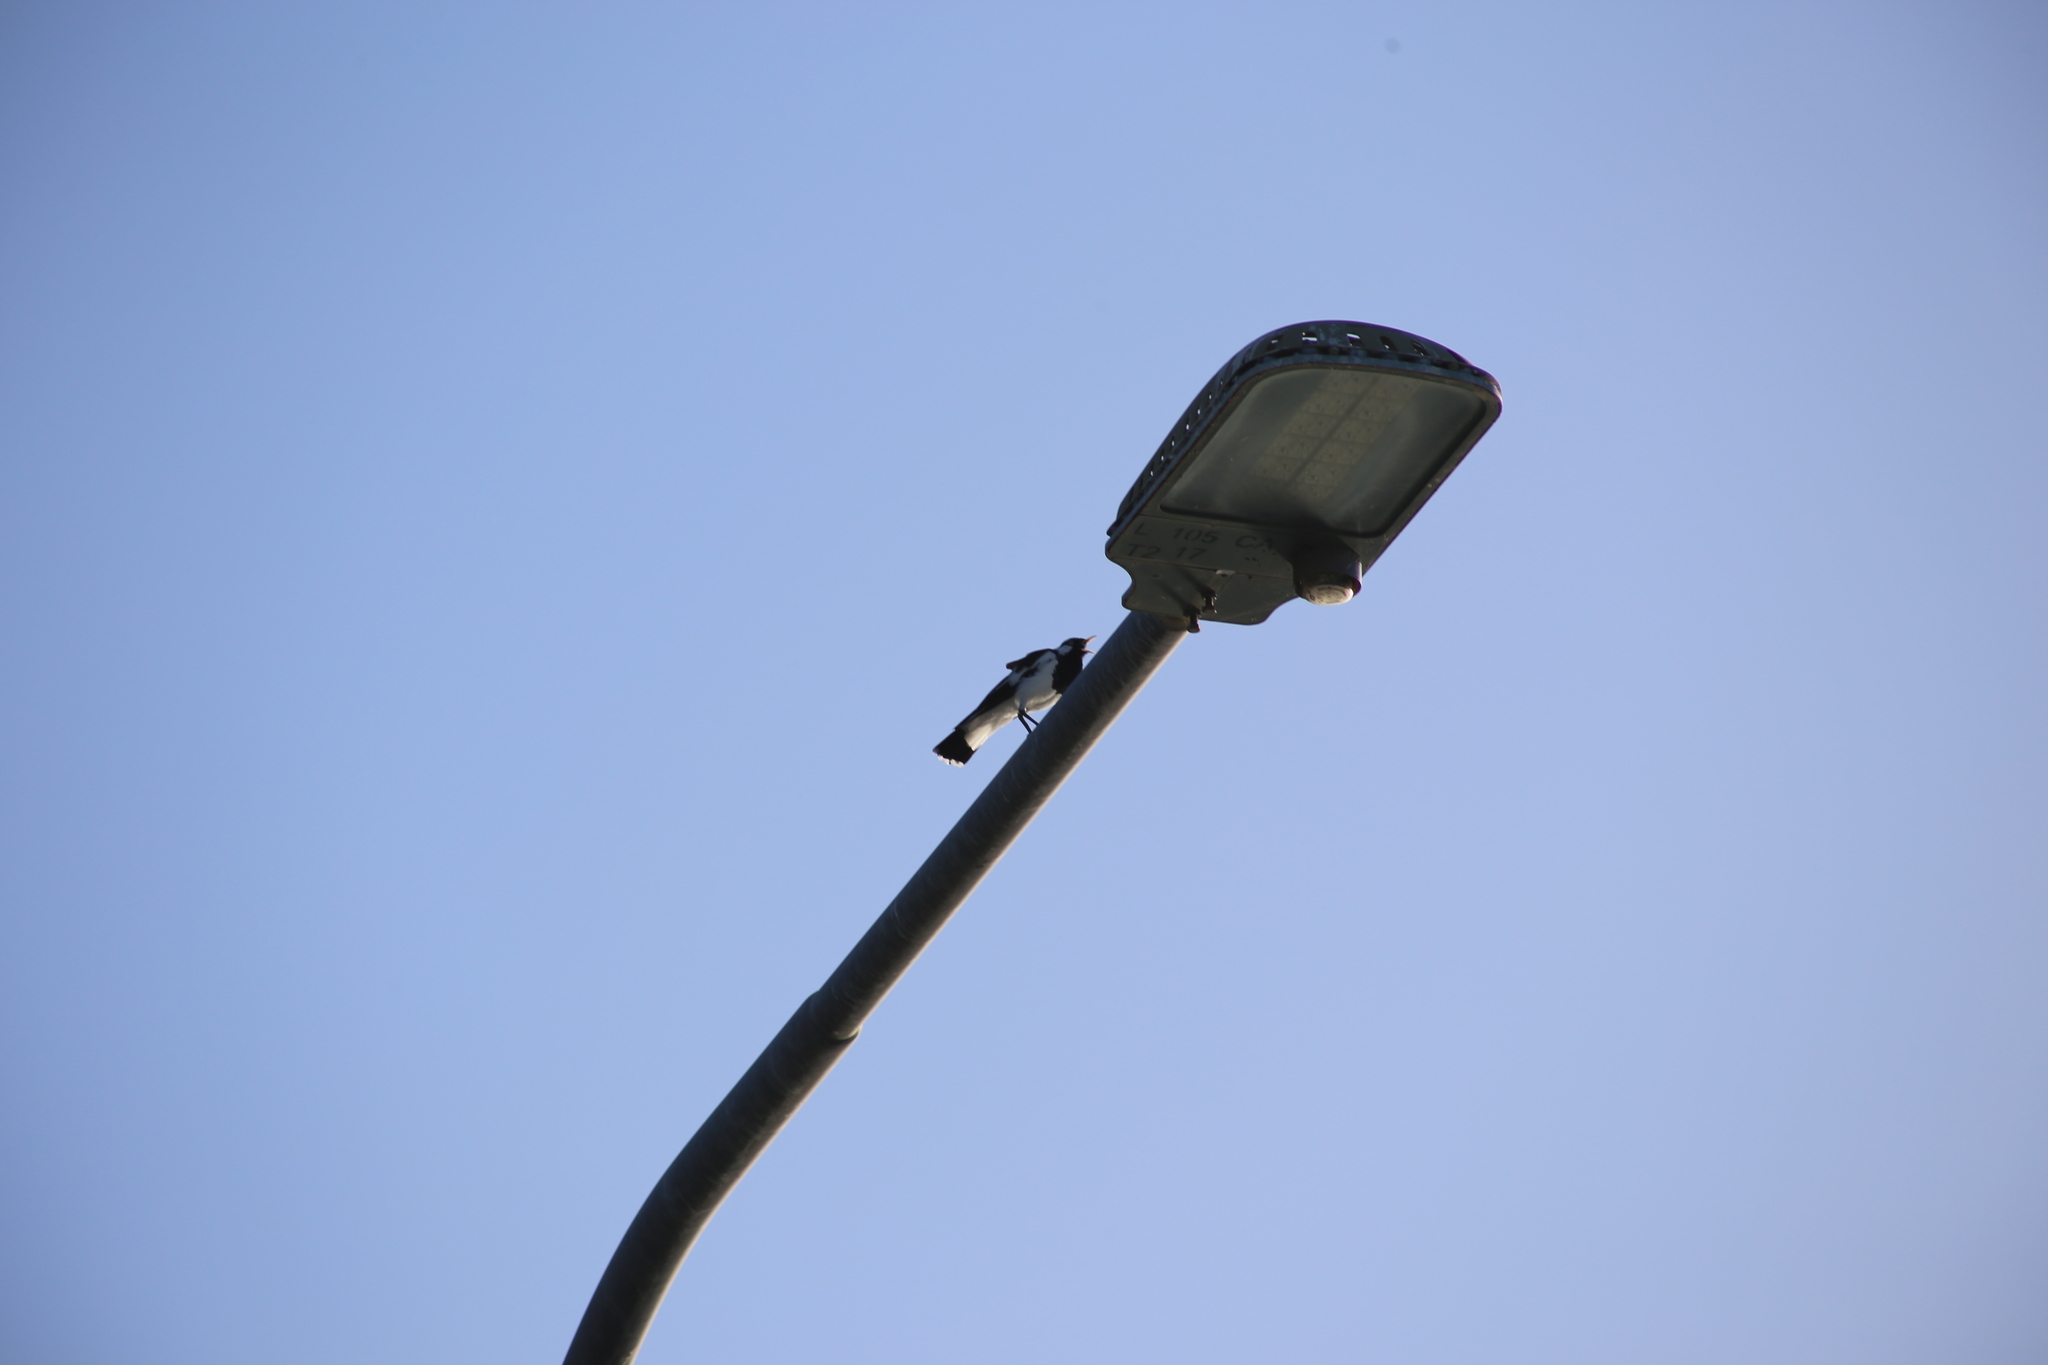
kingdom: Animalia
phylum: Chordata
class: Aves
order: Passeriformes
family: Monarchidae
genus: Grallina
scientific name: Grallina cyanoleuca
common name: Magpie-lark
